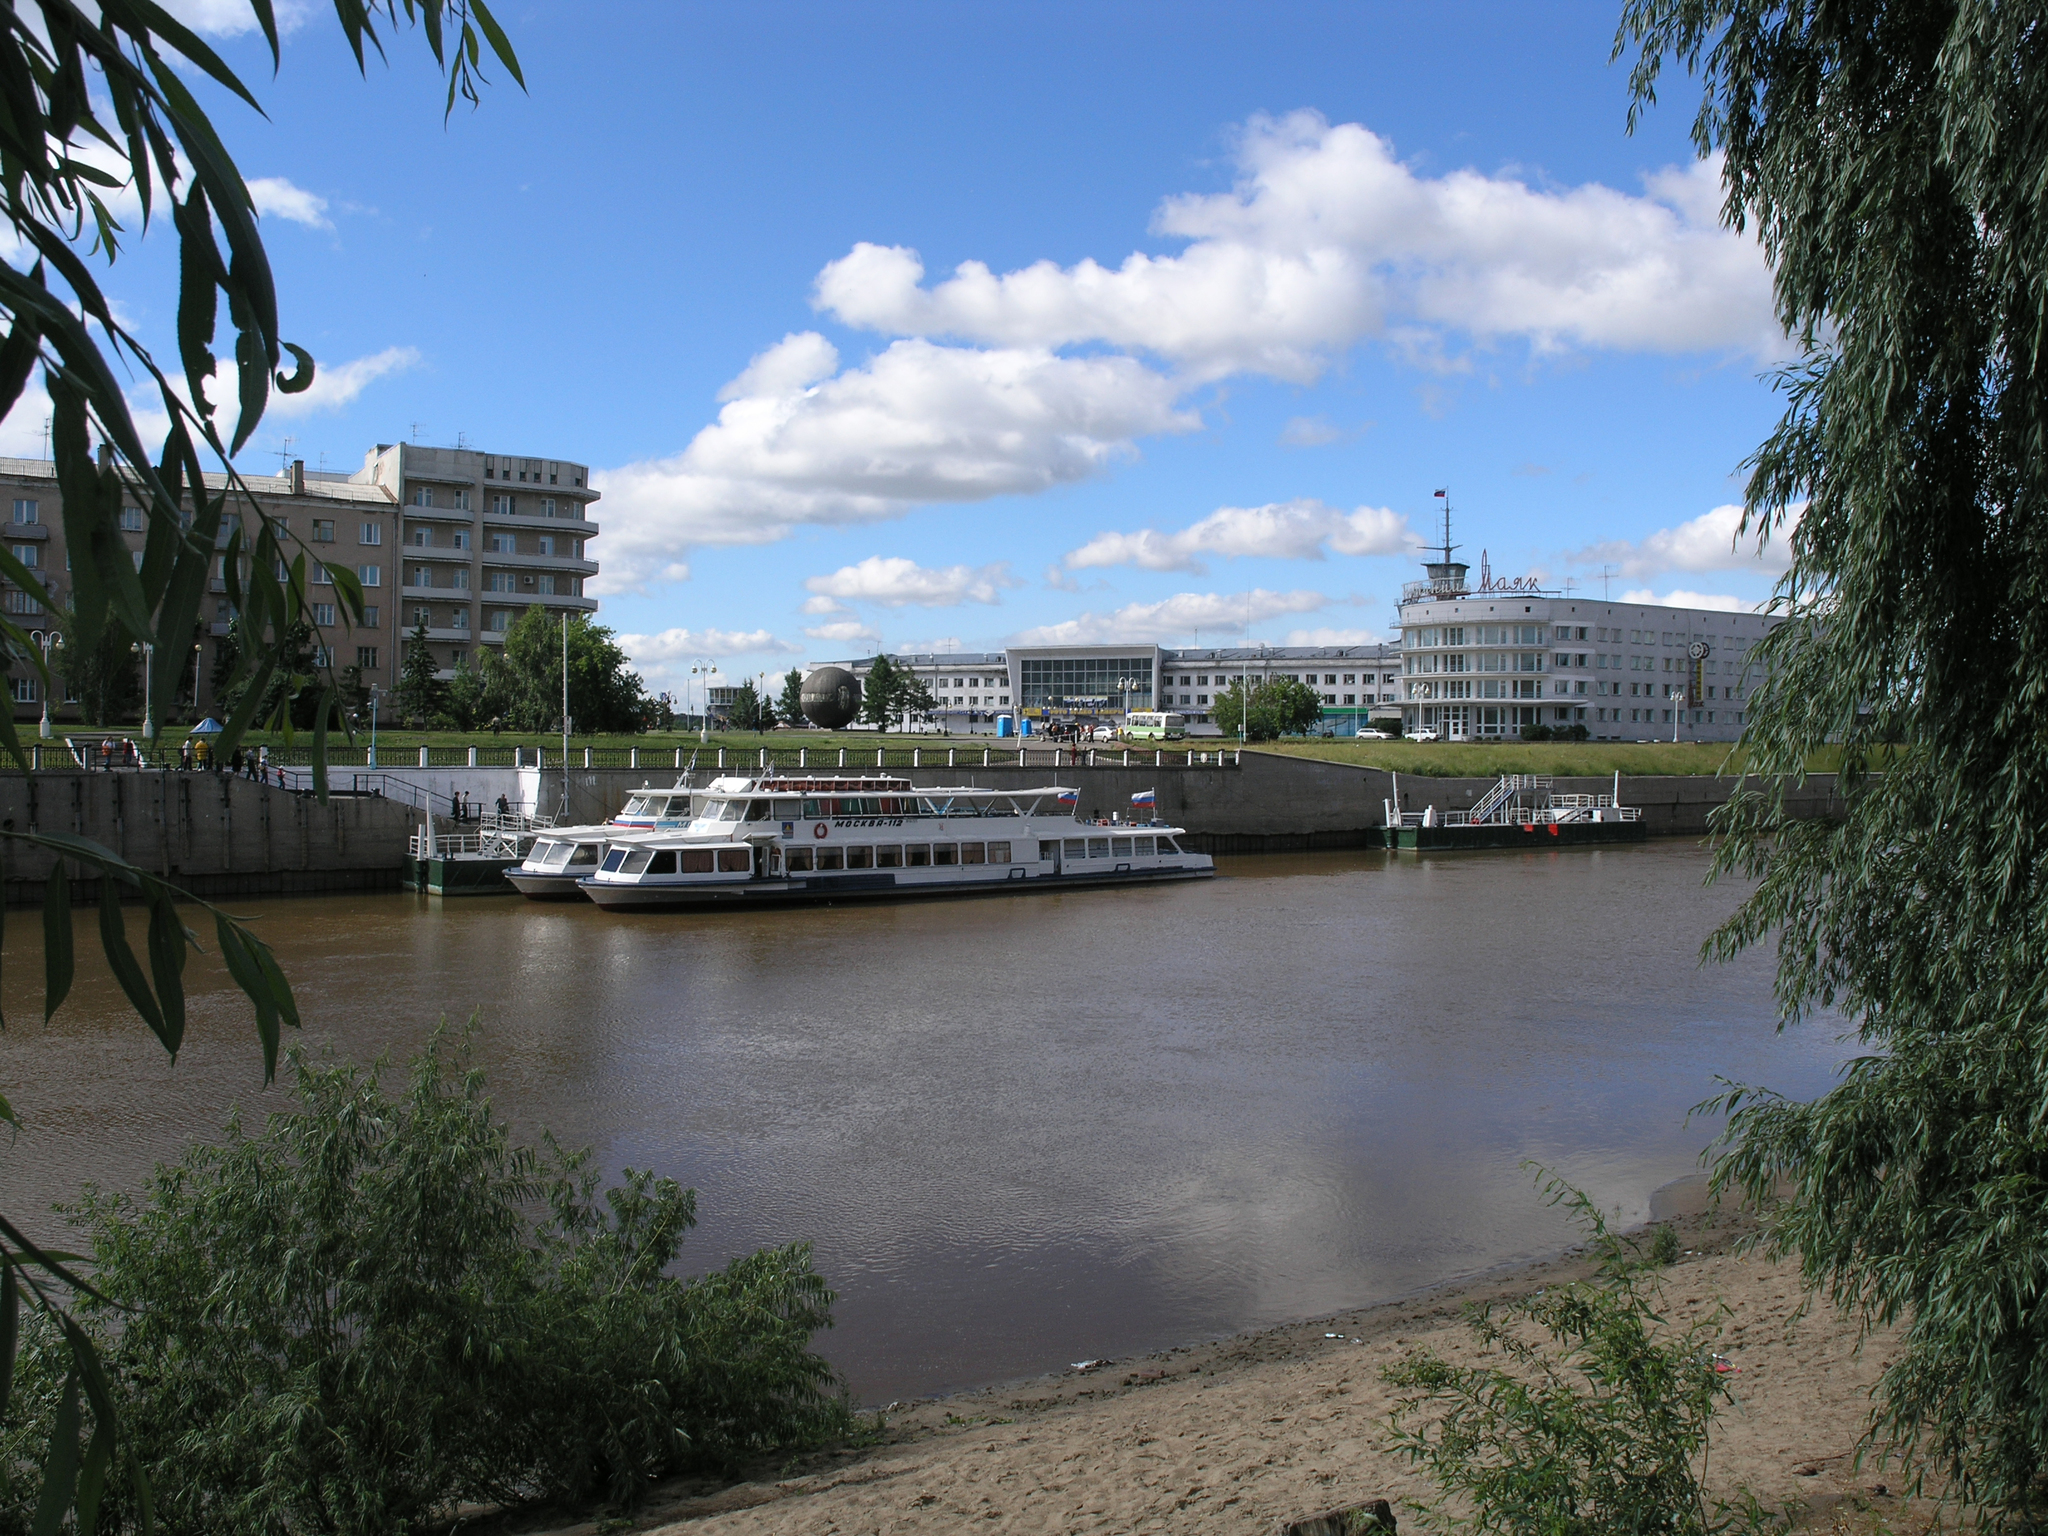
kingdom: Plantae
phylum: Tracheophyta
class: Magnoliopsida
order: Malpighiales
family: Salicaceae
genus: Salix
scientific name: Salix alba
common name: White willow
